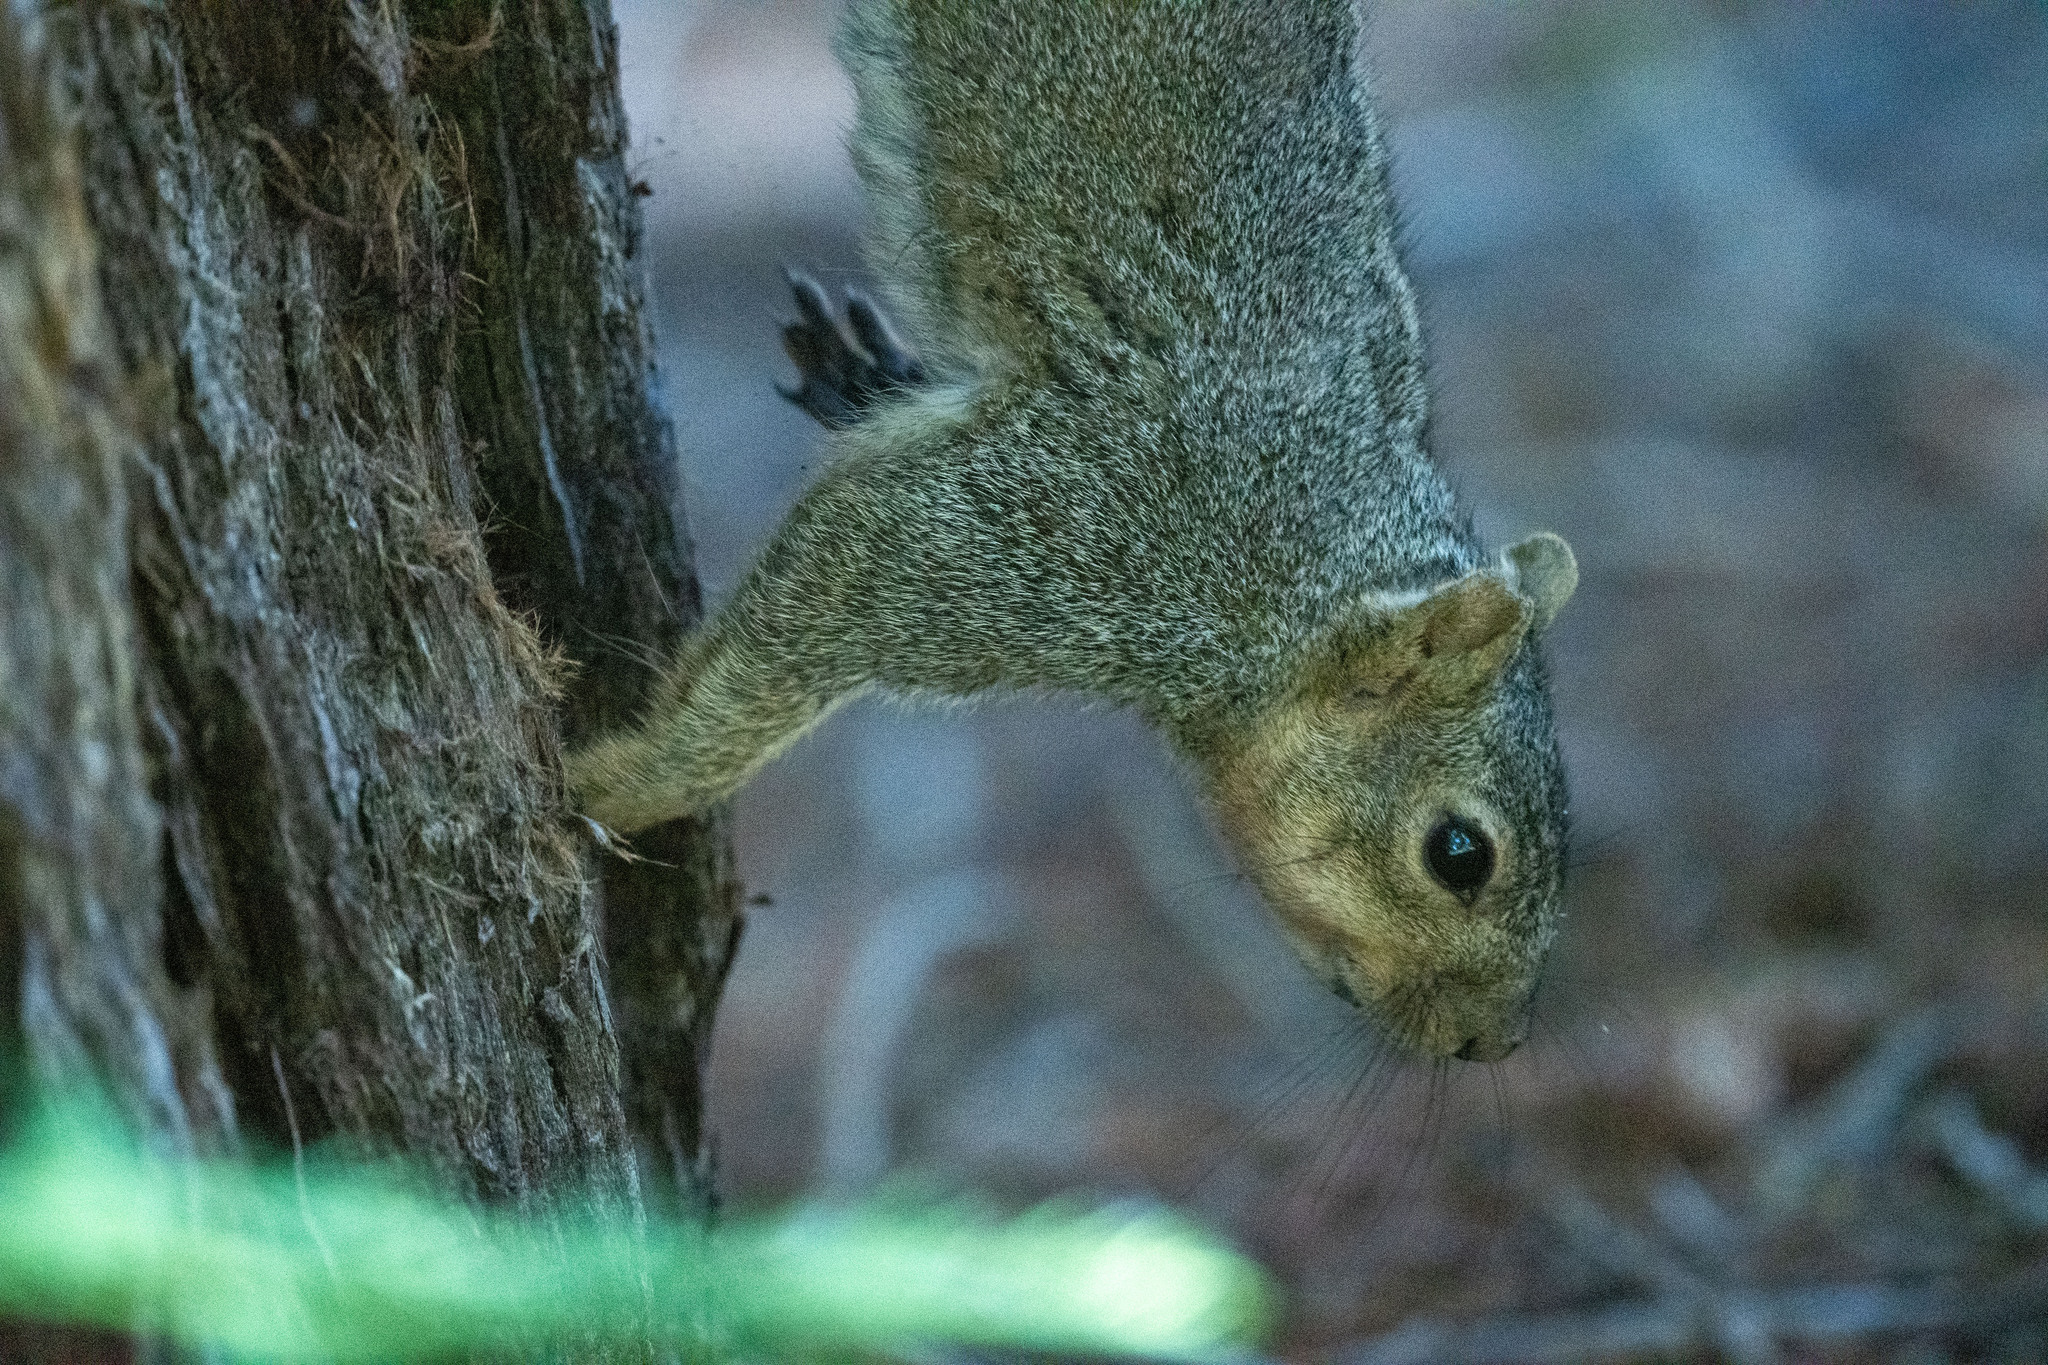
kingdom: Animalia
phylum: Chordata
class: Mammalia
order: Rodentia
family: Sciuridae
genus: Sciurus
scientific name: Sciurus niger
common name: Fox squirrel
